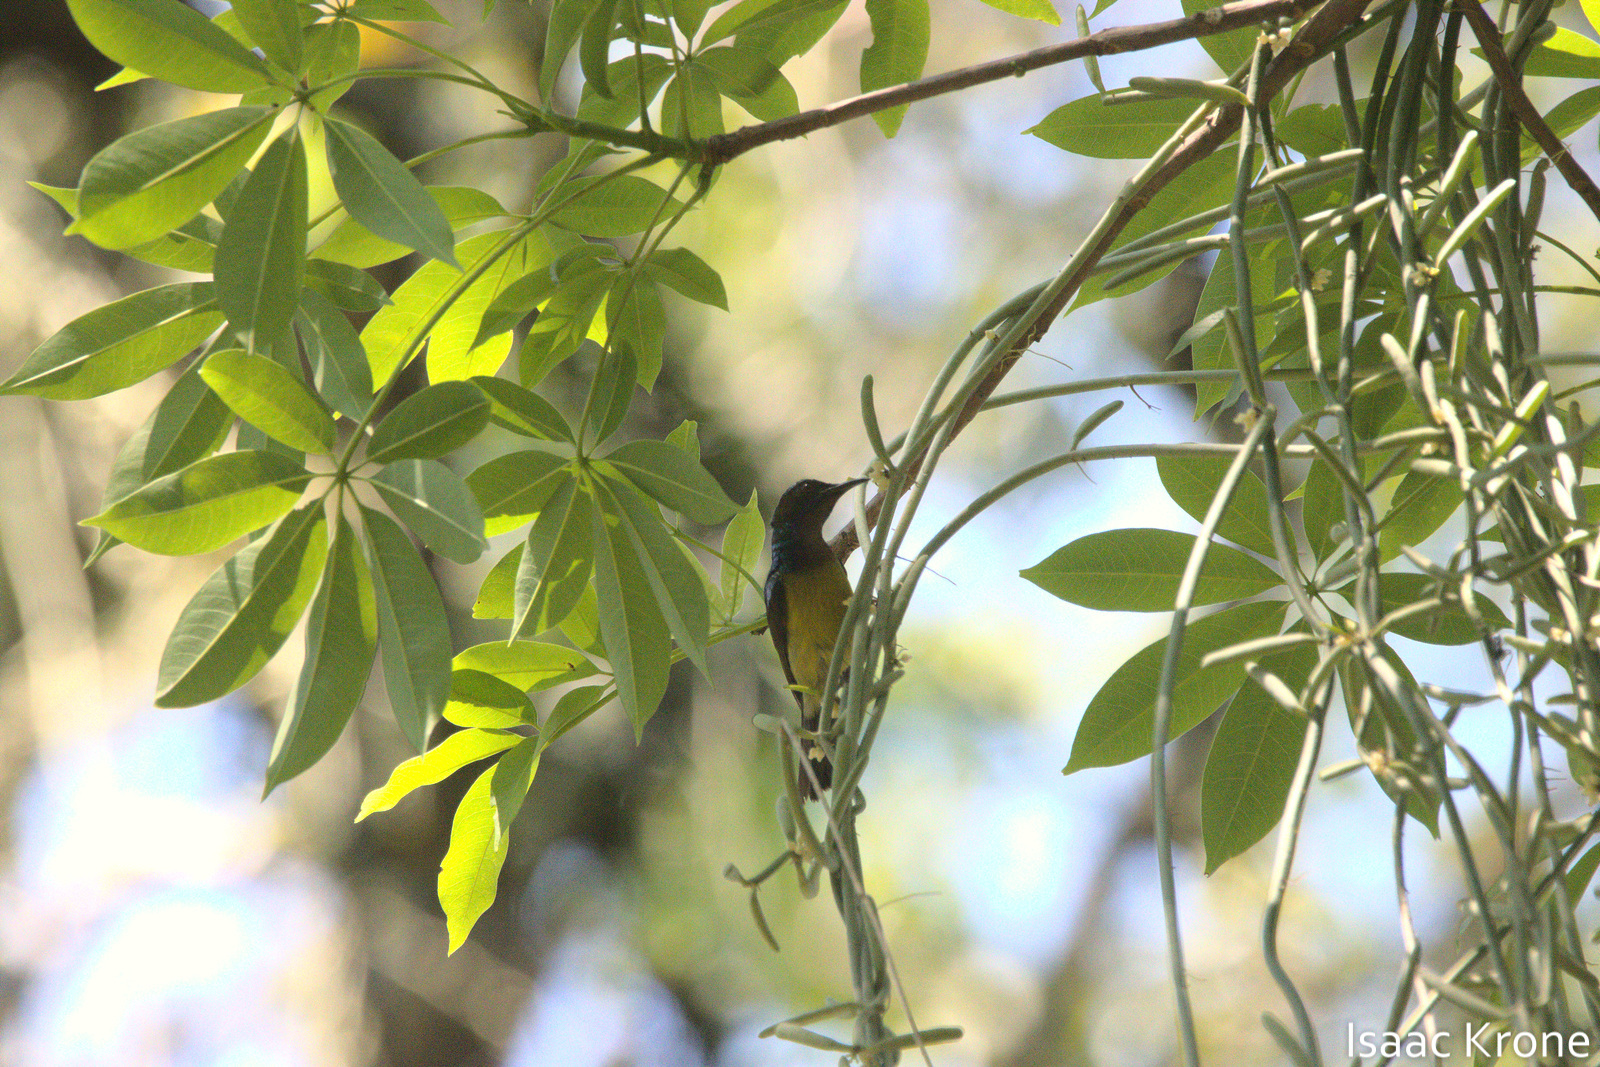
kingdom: Animalia
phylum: Chordata
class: Aves
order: Passeriformes
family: Nectariniidae
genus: Anthreptes
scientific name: Anthreptes malacensis
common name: Brown-throated sunbird
